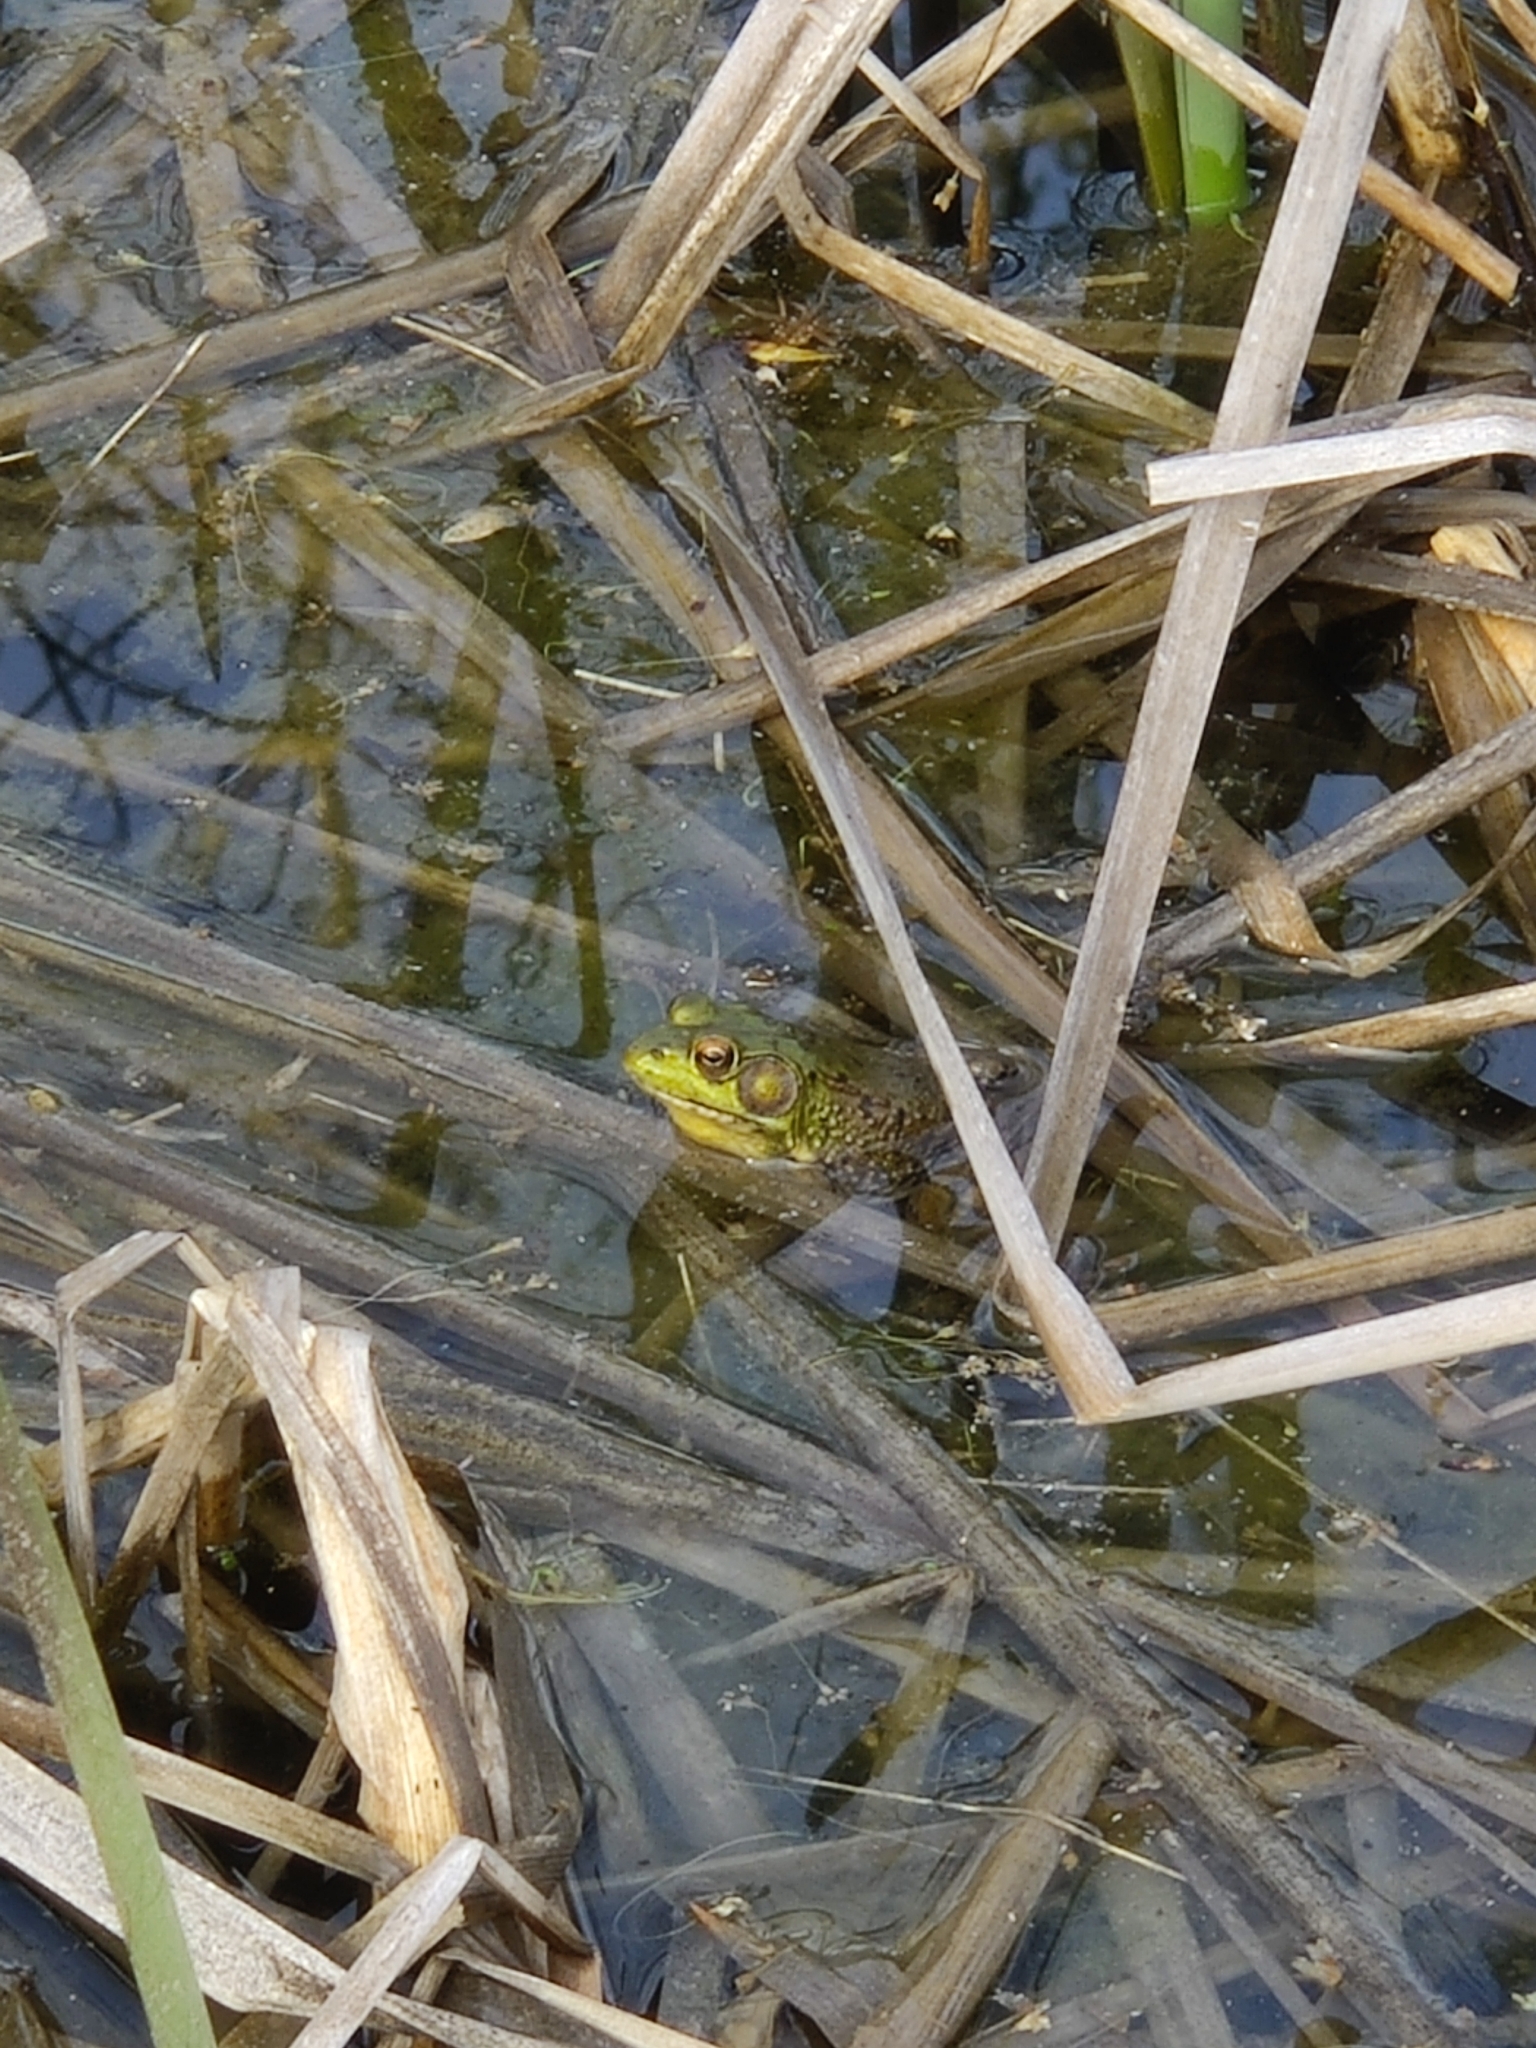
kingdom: Animalia
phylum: Chordata
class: Amphibia
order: Anura
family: Ranidae
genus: Lithobates
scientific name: Lithobates clamitans
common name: Green frog
